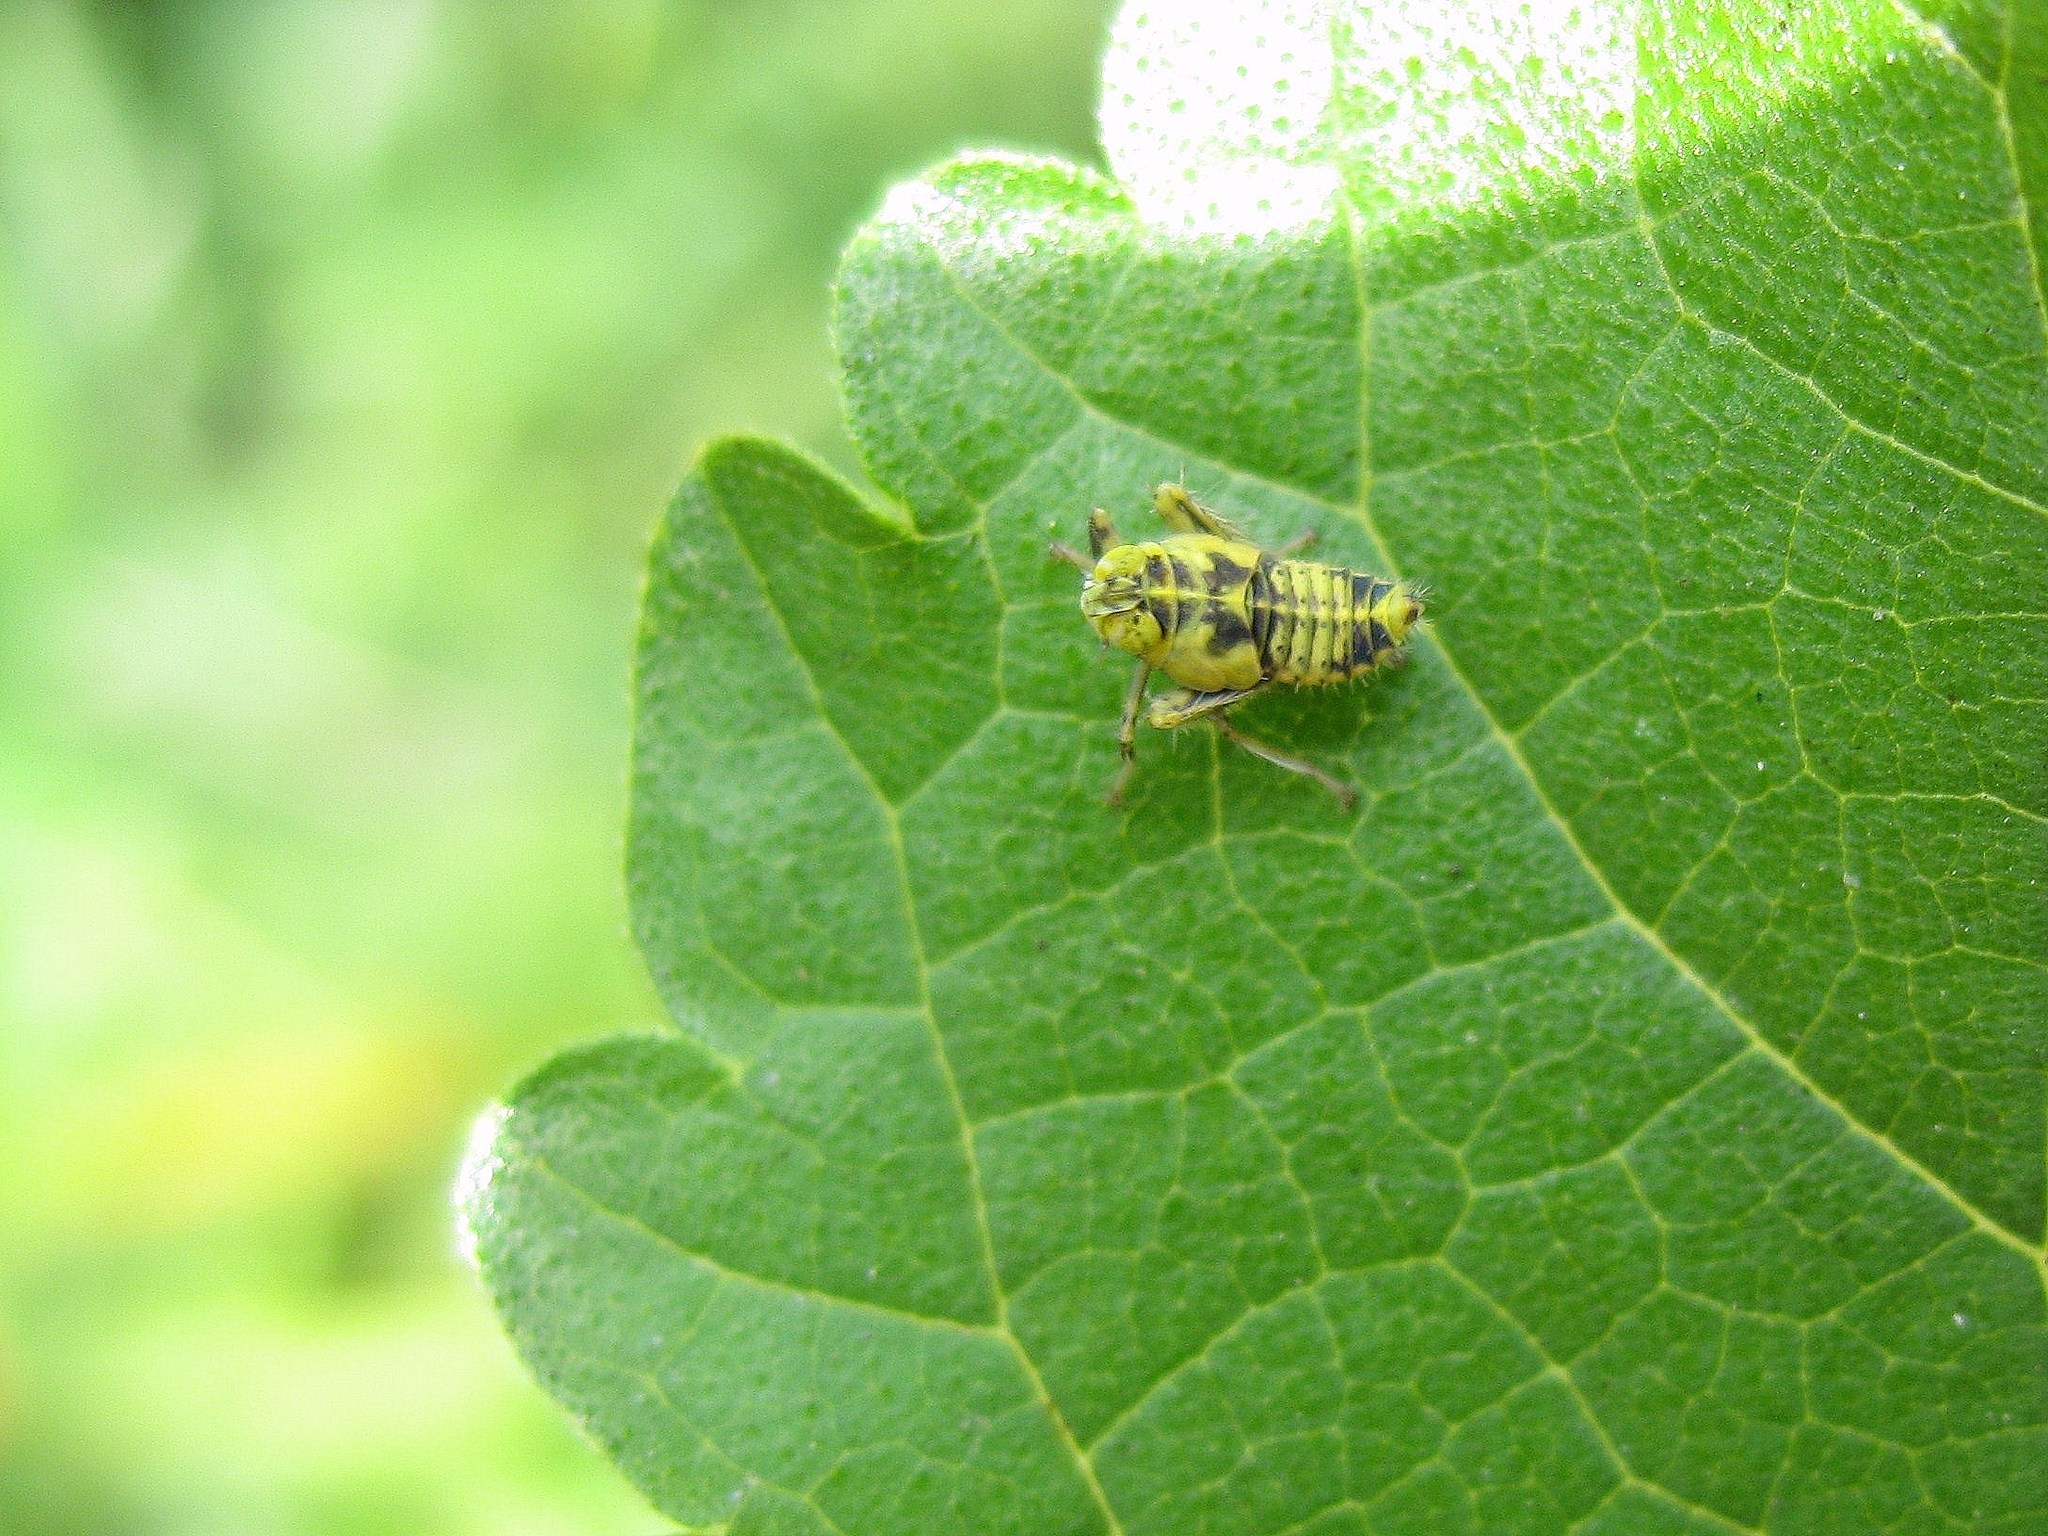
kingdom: Animalia
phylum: Arthropoda
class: Insecta
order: Hemiptera
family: Cicadellidae
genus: Jikradia
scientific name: Jikradia olitoria
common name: Coppery leafhopper
